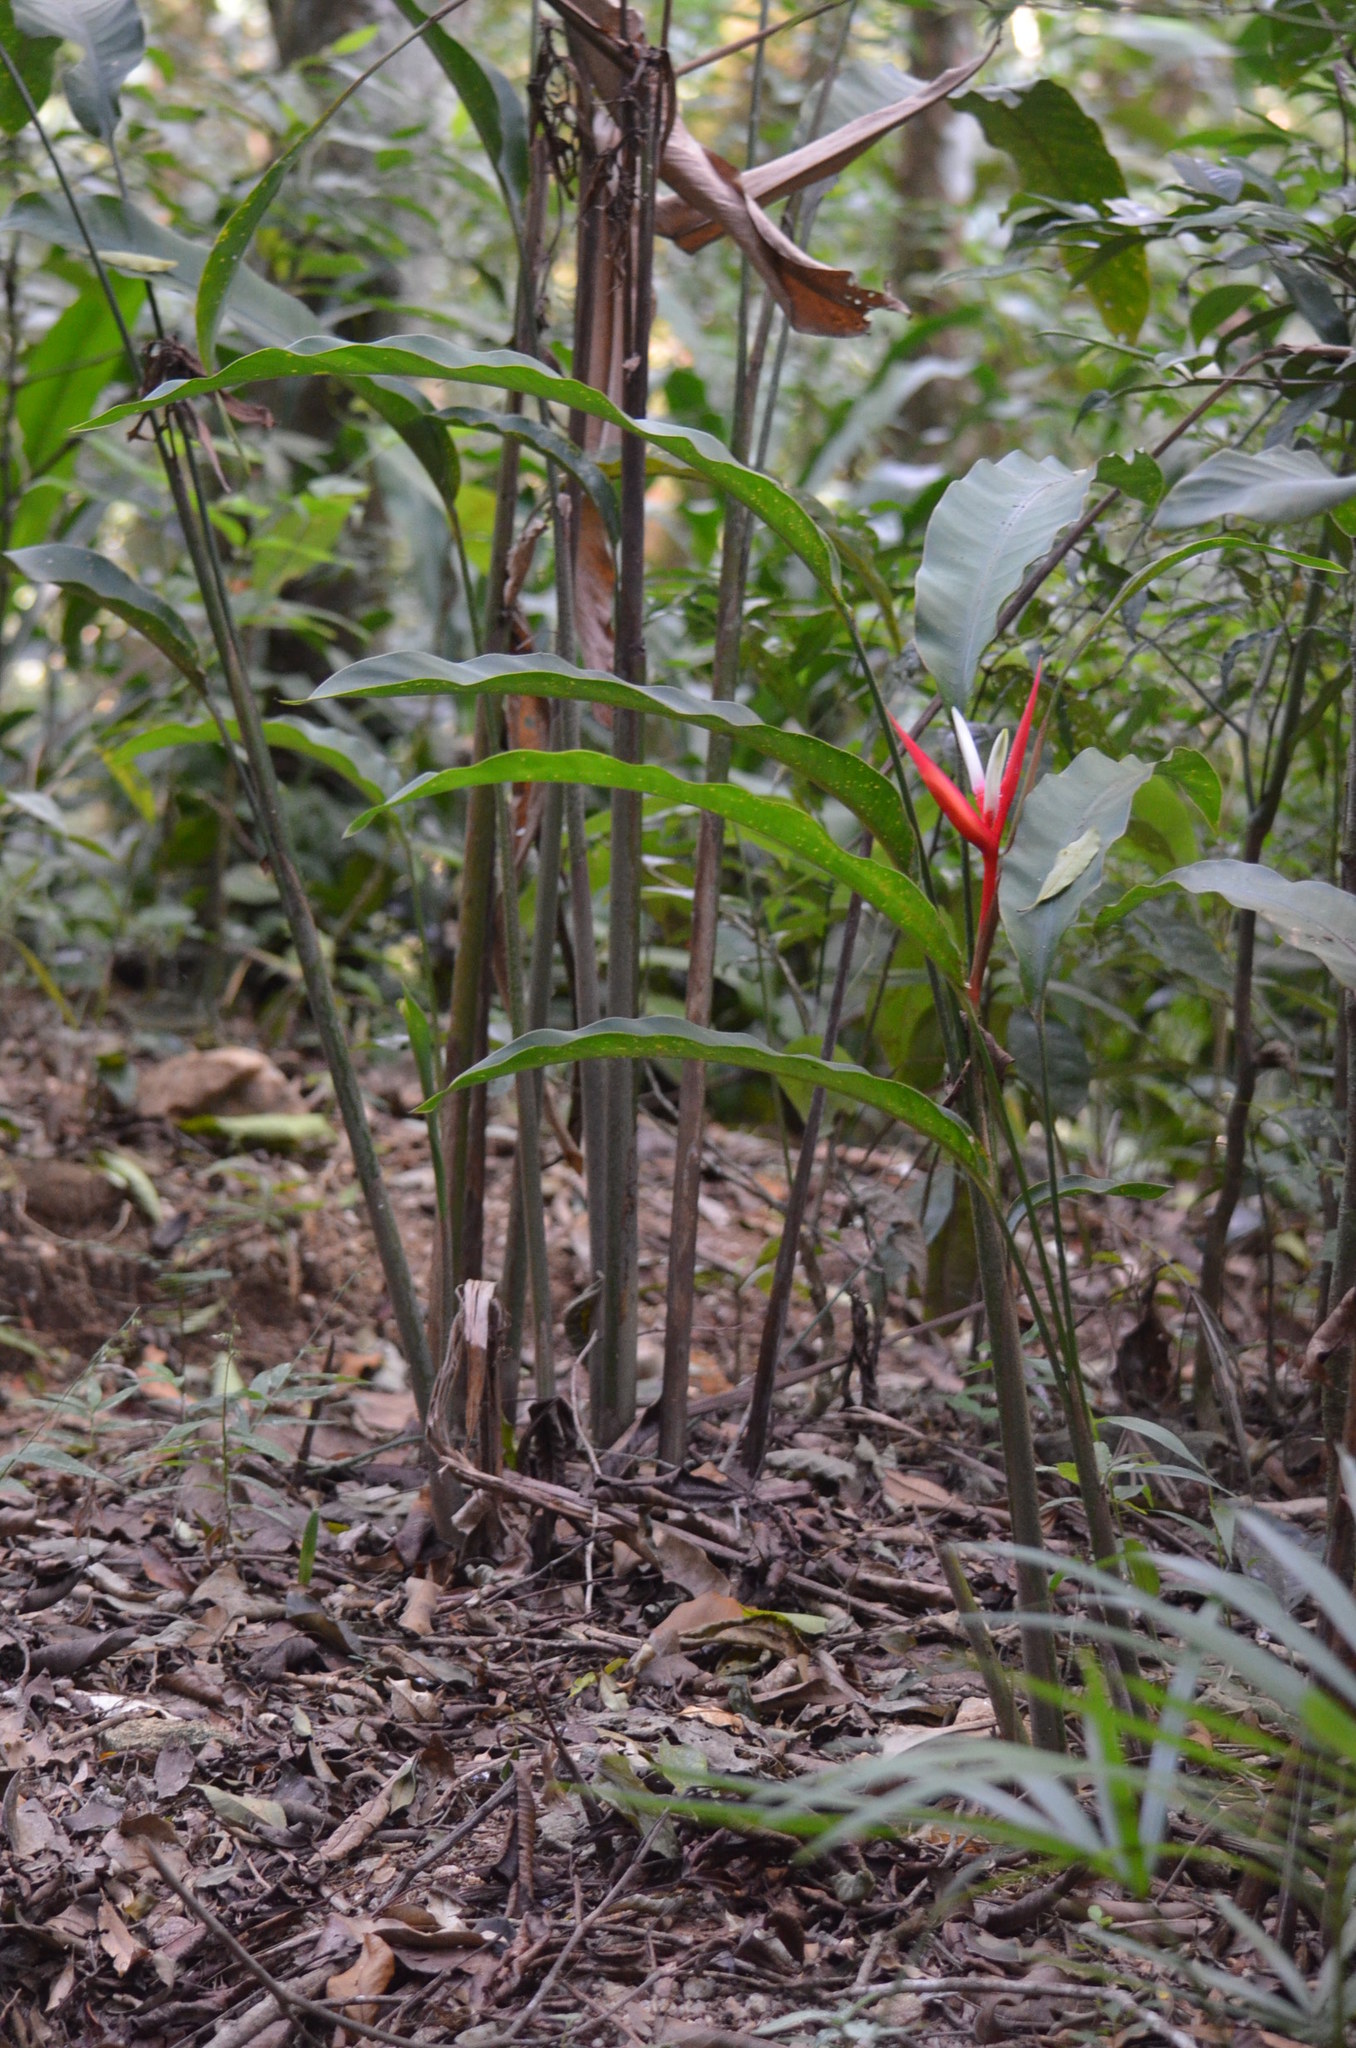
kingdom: Plantae
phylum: Tracheophyta
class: Liliopsida
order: Zingiberales
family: Heliconiaceae
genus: Heliconia
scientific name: Heliconia angusta
